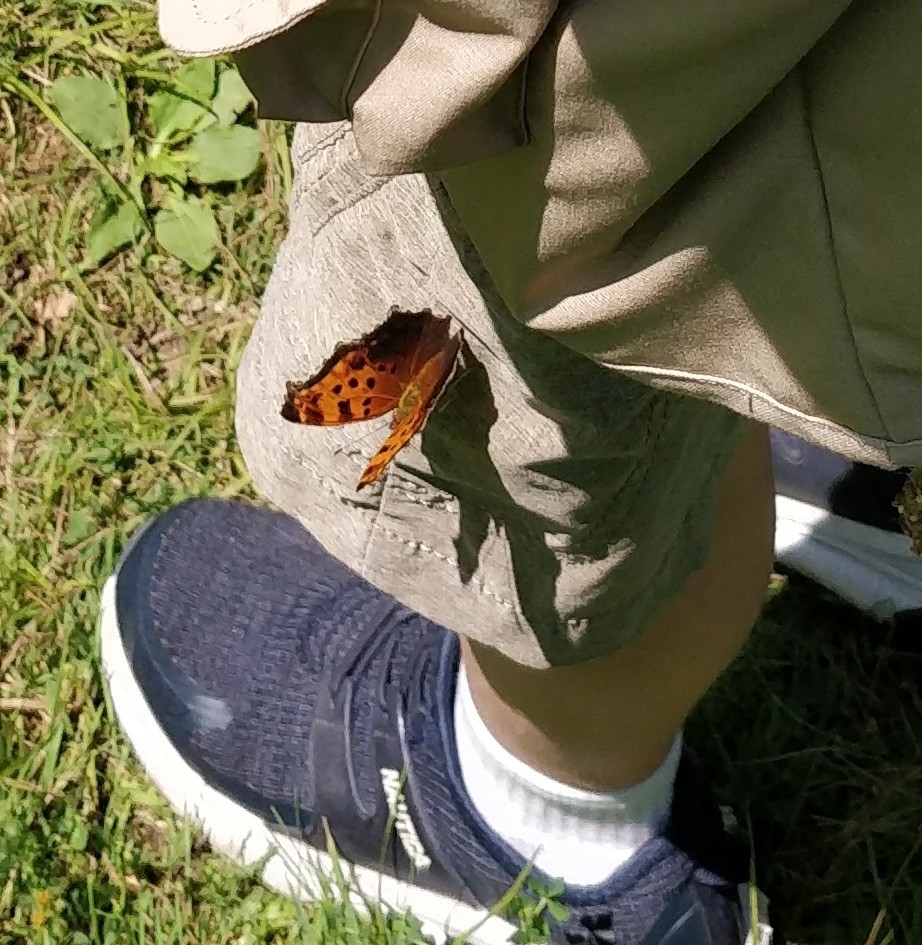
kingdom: Animalia
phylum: Arthropoda
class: Insecta
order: Lepidoptera
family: Nymphalidae
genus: Polygonia
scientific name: Polygonia comma
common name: Eastern comma
